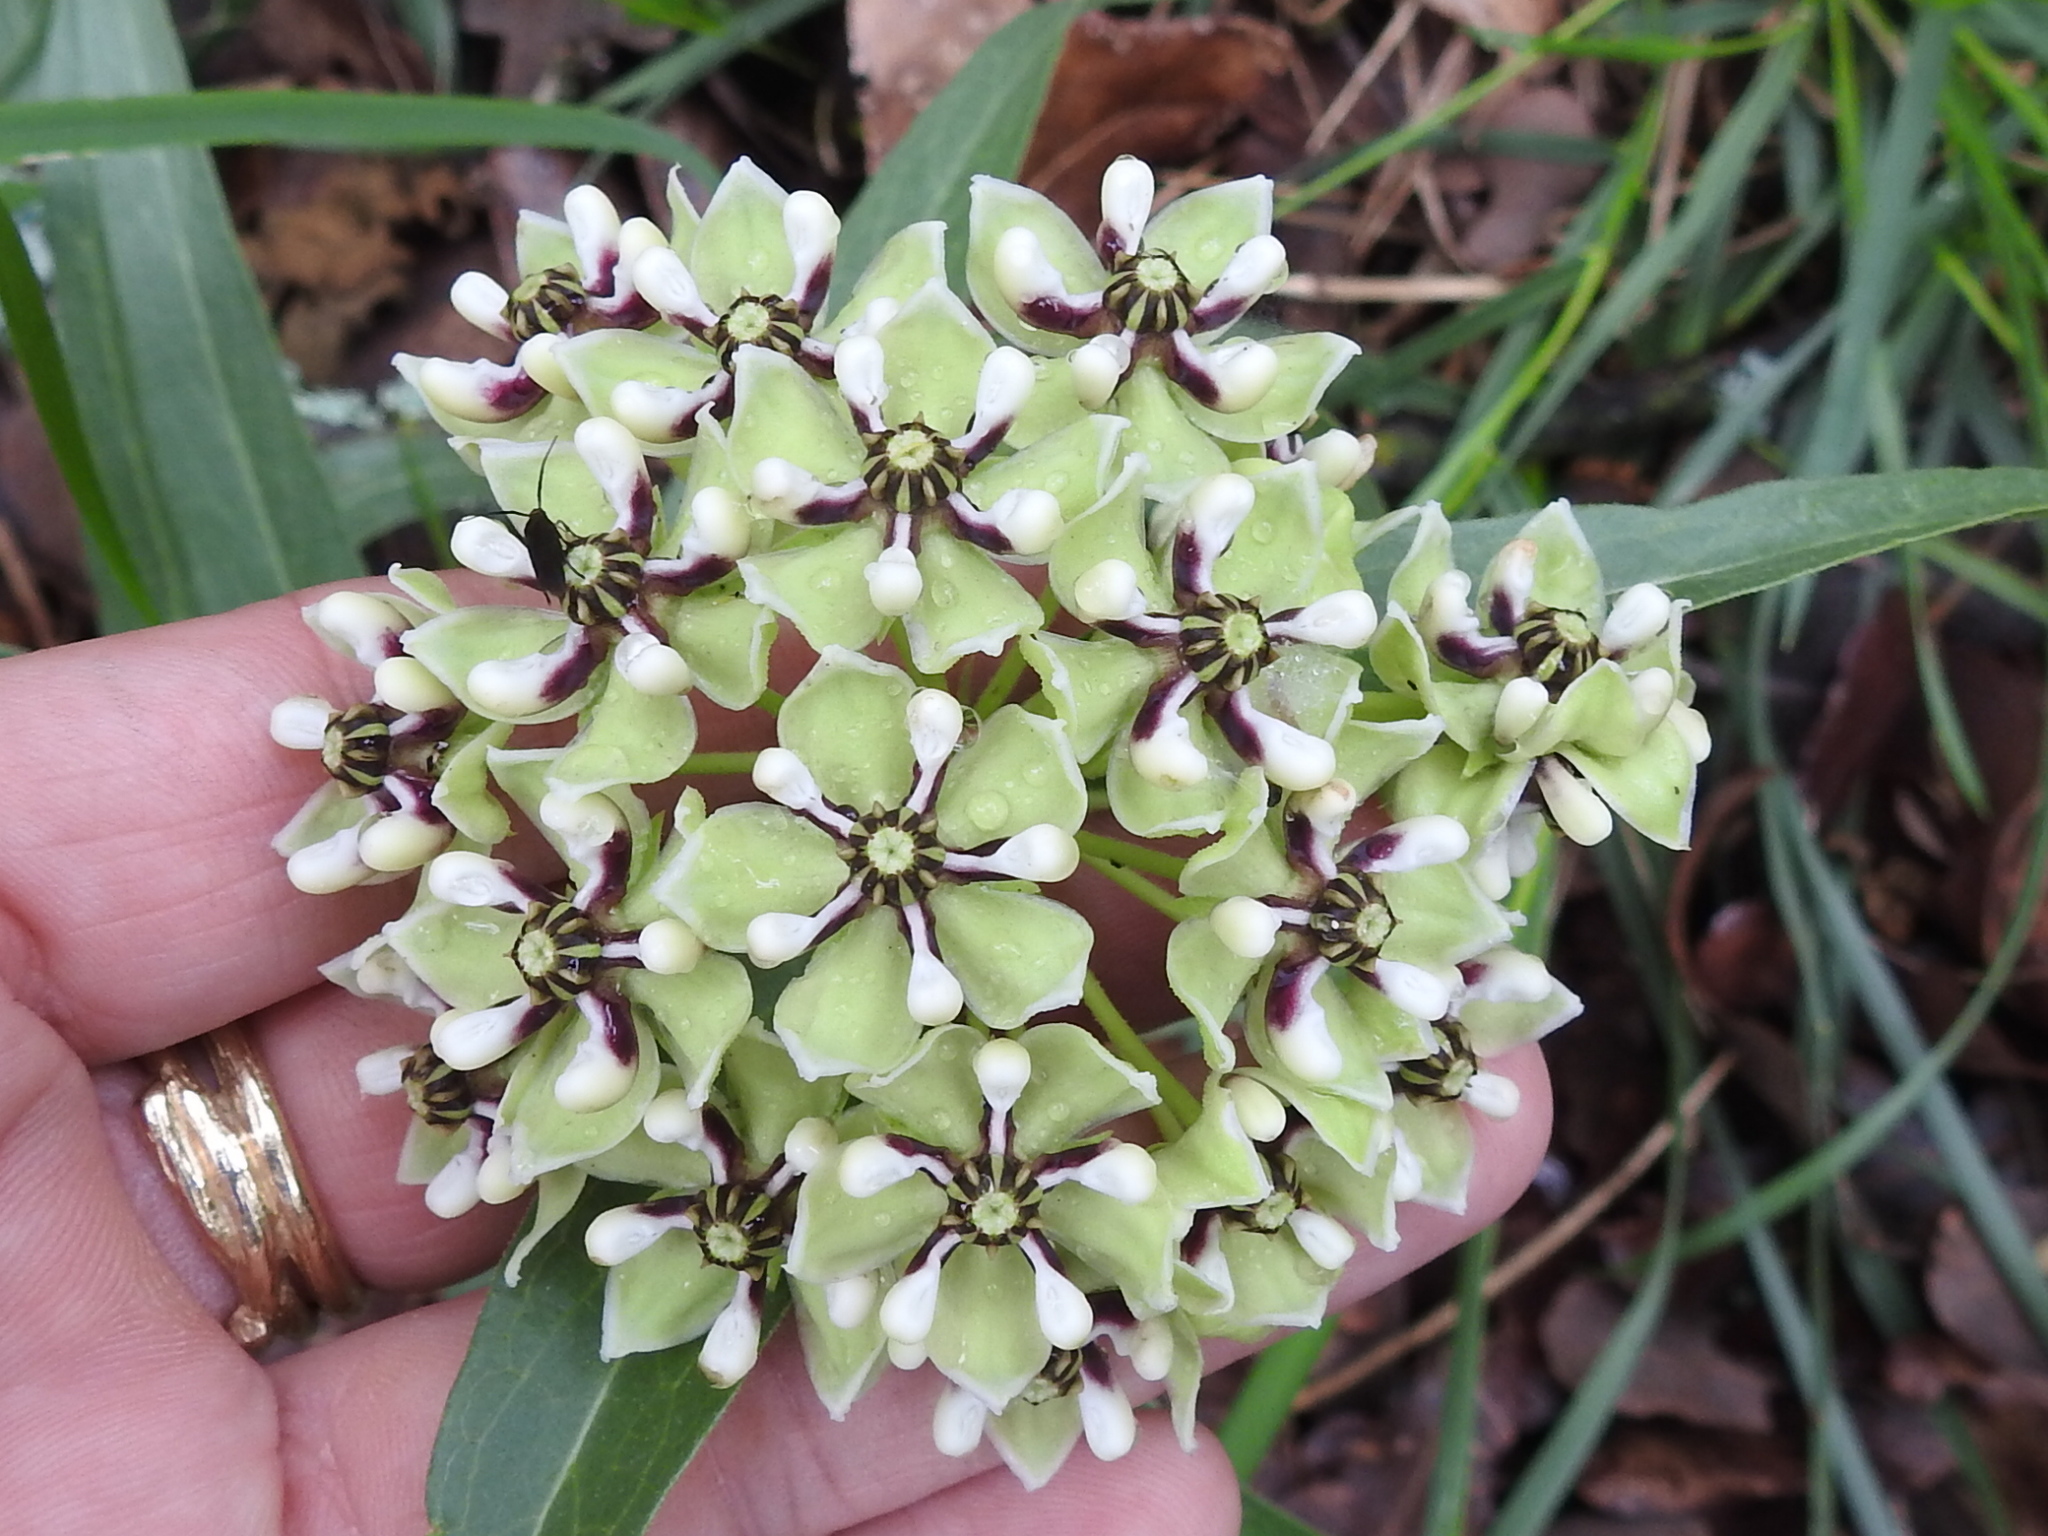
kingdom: Plantae
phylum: Tracheophyta
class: Magnoliopsida
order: Gentianales
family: Apocynaceae
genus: Asclepias
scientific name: Asclepias asperula
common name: Antelope horns
